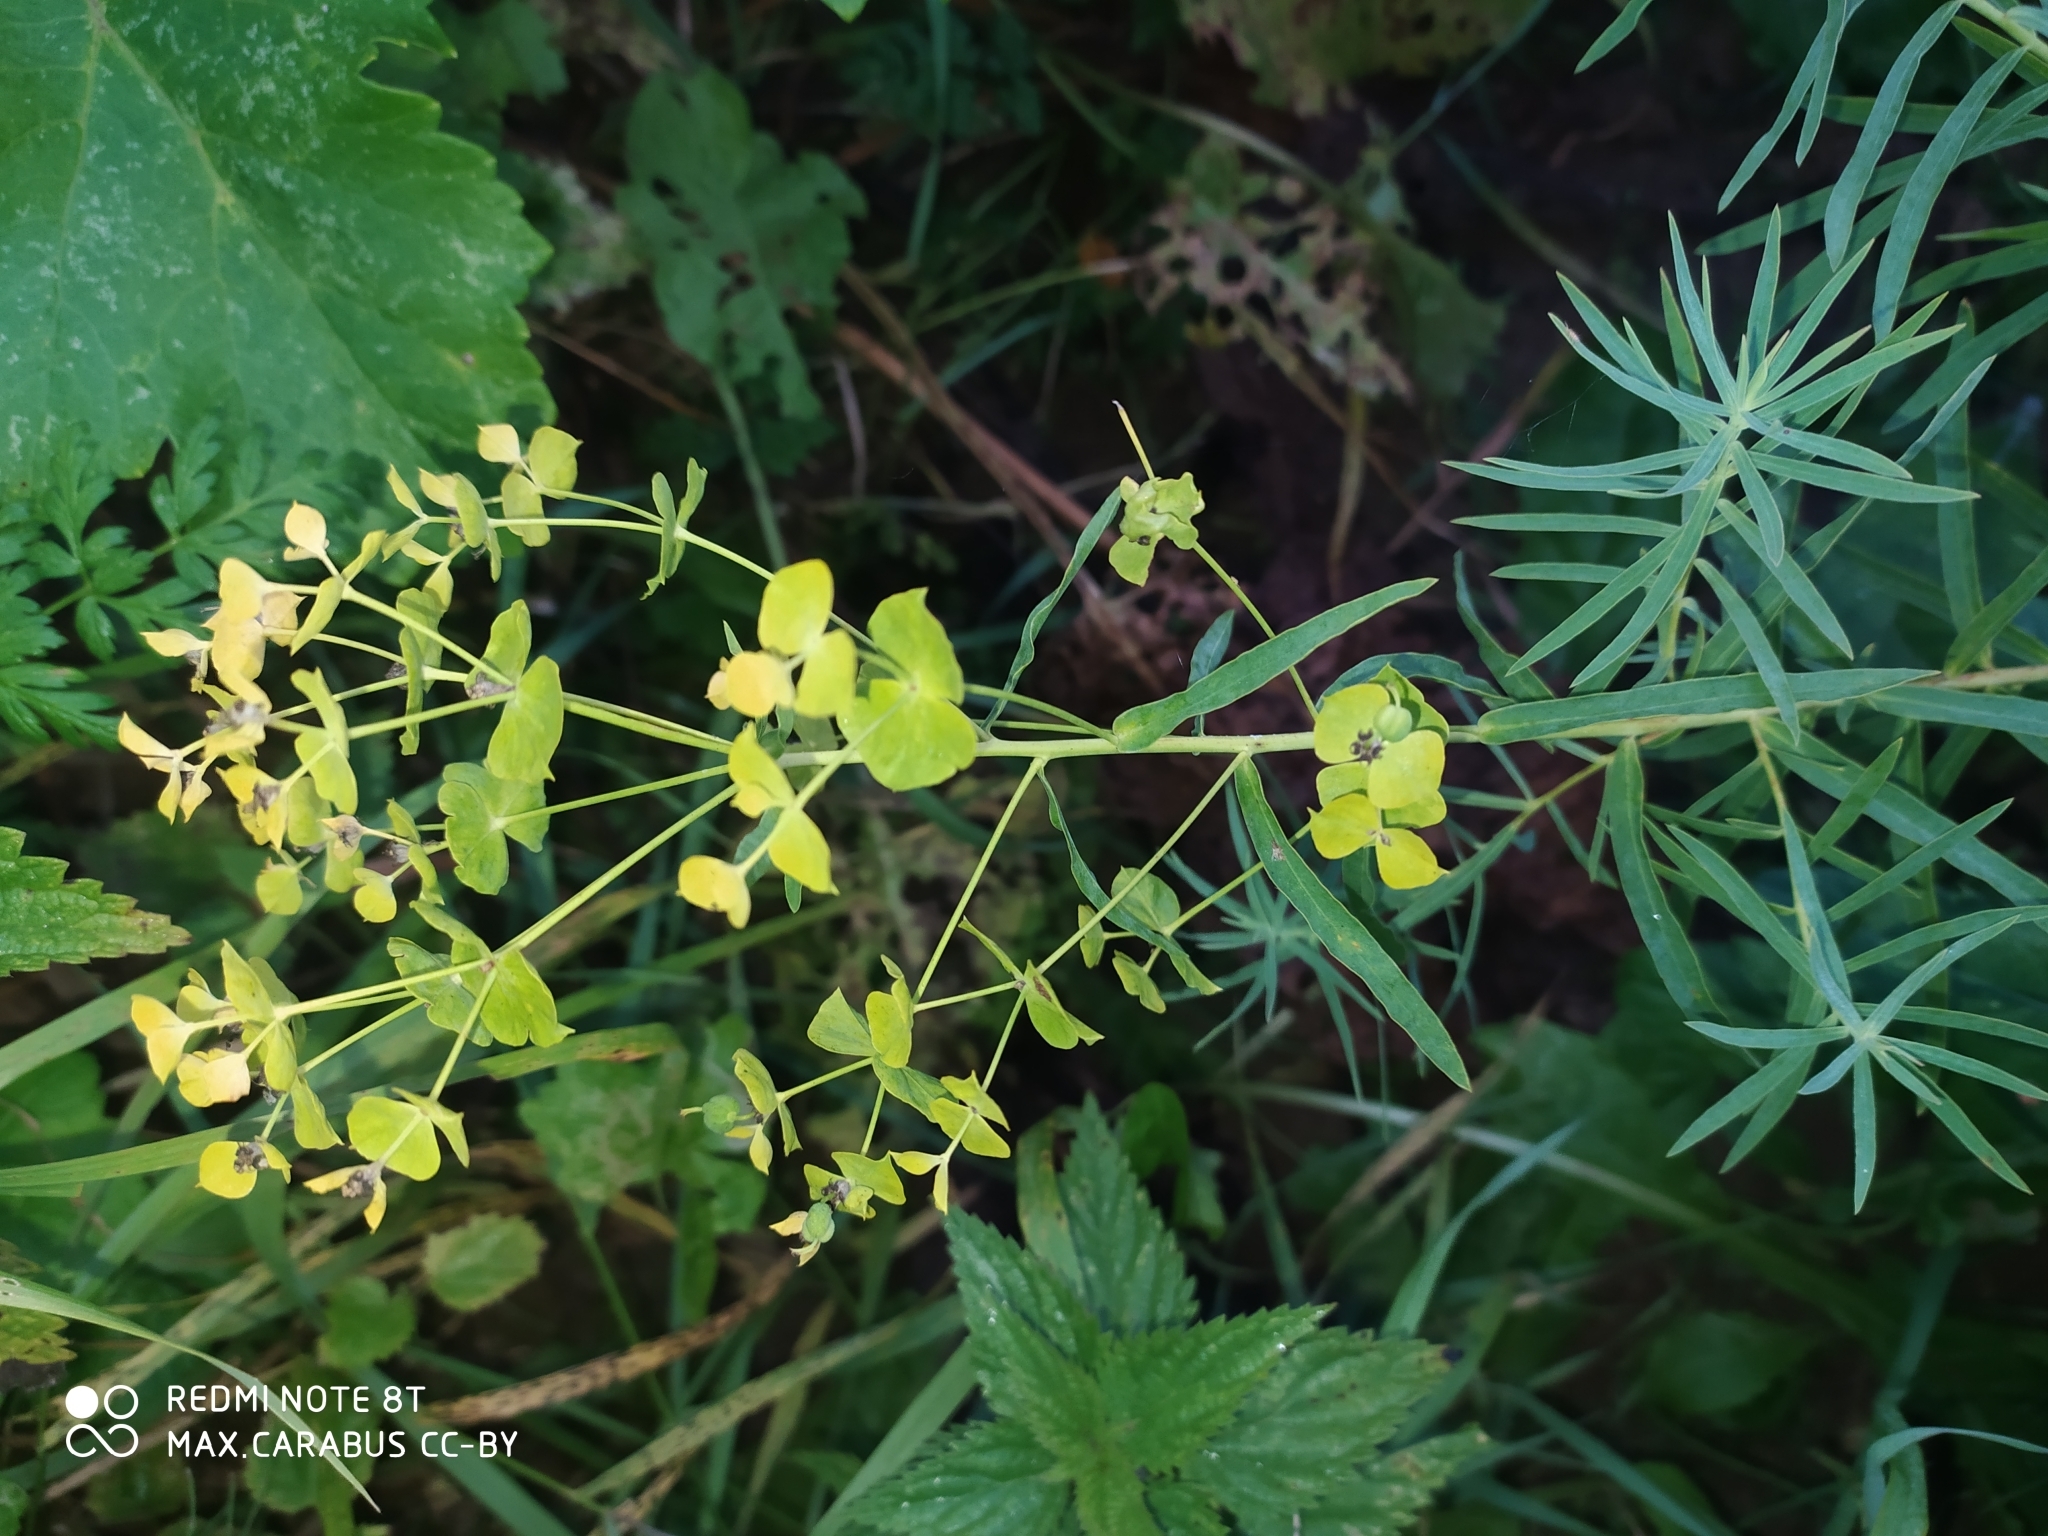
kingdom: Plantae
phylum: Tracheophyta
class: Magnoliopsida
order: Malpighiales
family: Euphorbiaceae
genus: Euphorbia
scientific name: Euphorbia virgata
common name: Leafy spurge
